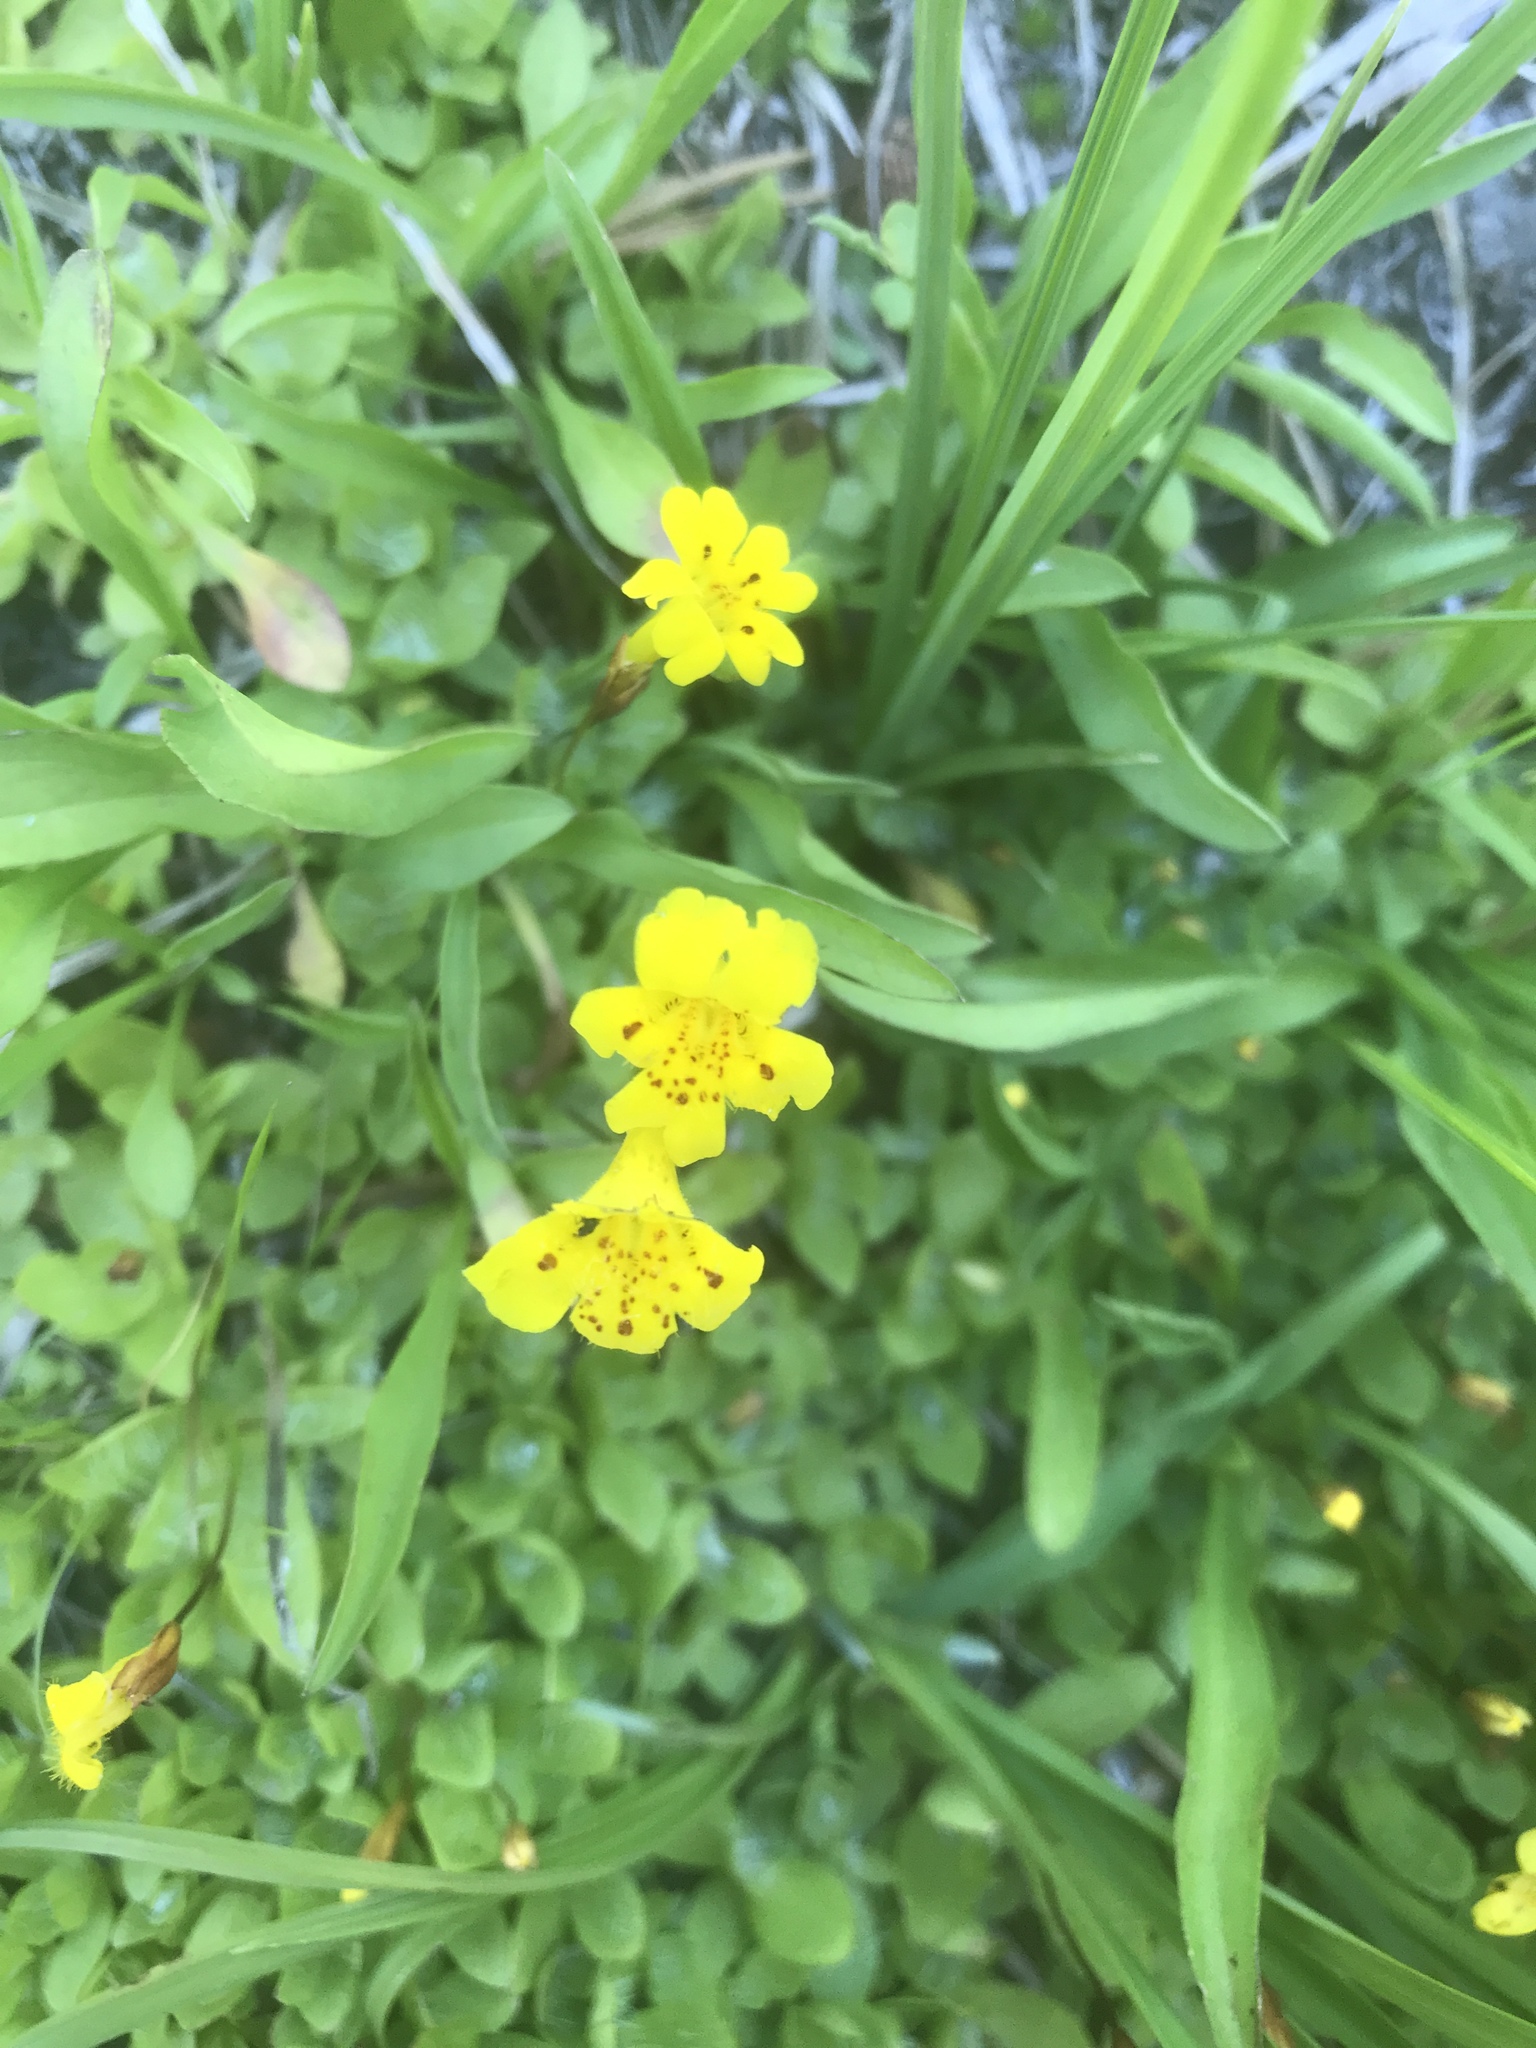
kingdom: Plantae
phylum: Tracheophyta
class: Magnoliopsida
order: Lamiales
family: Phrymaceae
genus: Erythranthe
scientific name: Erythranthe primuloides
